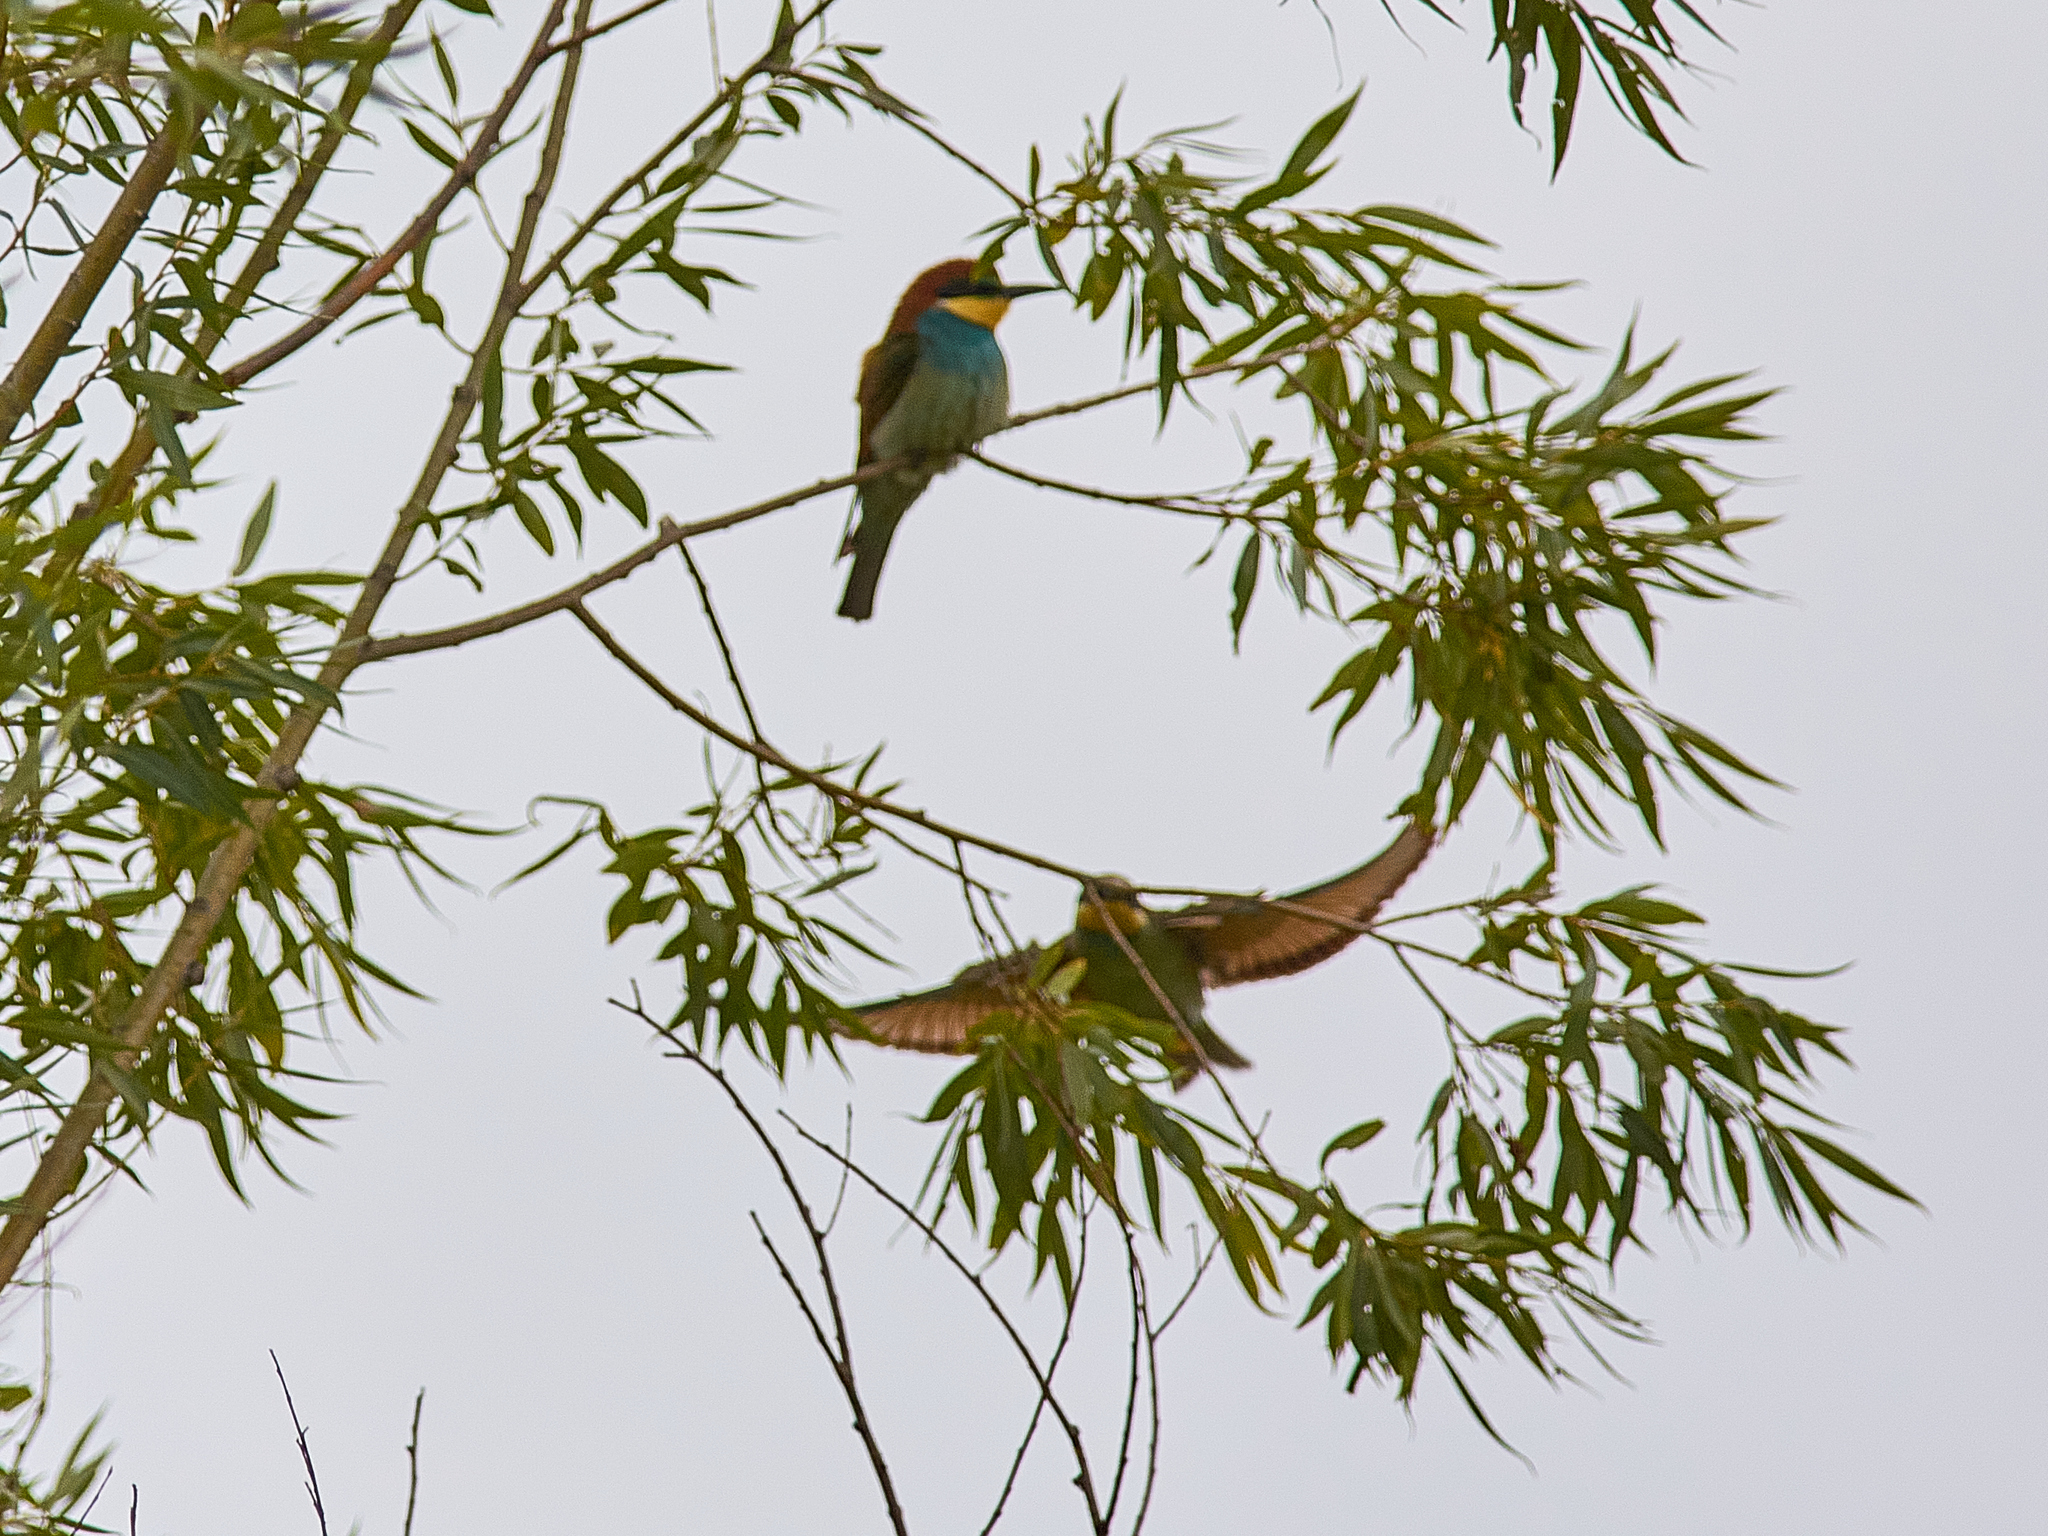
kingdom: Animalia
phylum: Chordata
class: Aves
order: Coraciiformes
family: Meropidae
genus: Merops
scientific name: Merops apiaster
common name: European bee-eater
